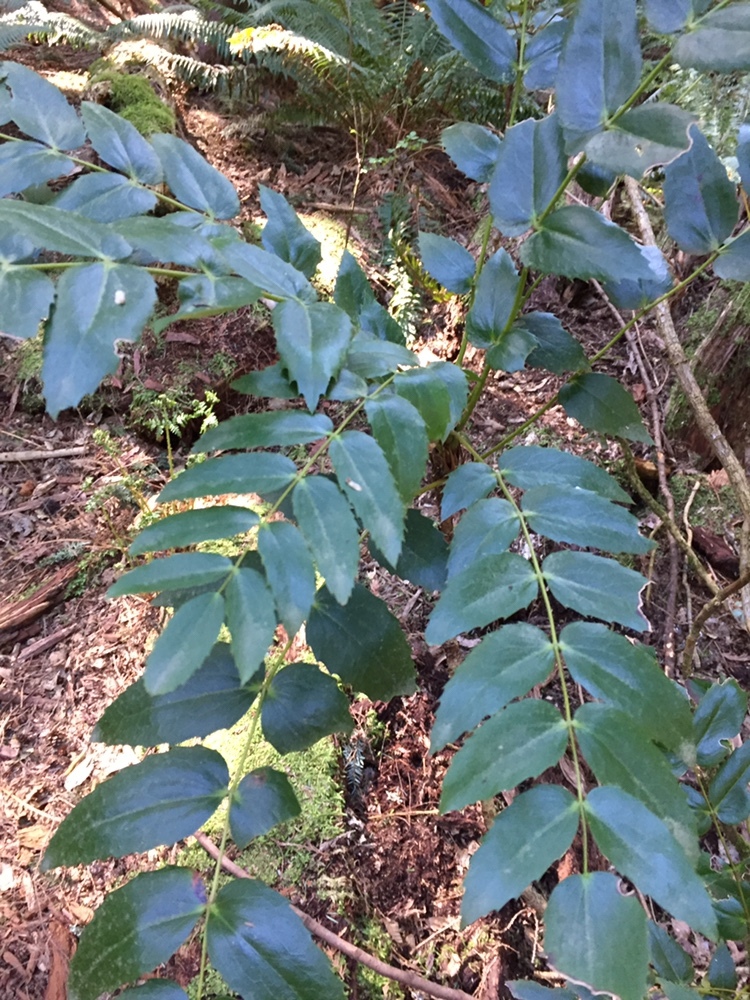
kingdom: Plantae
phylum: Tracheophyta
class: Magnoliopsida
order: Ranunculales
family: Berberidaceae
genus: Mahonia
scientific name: Mahonia nervosa
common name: Cascade oregon-grape
